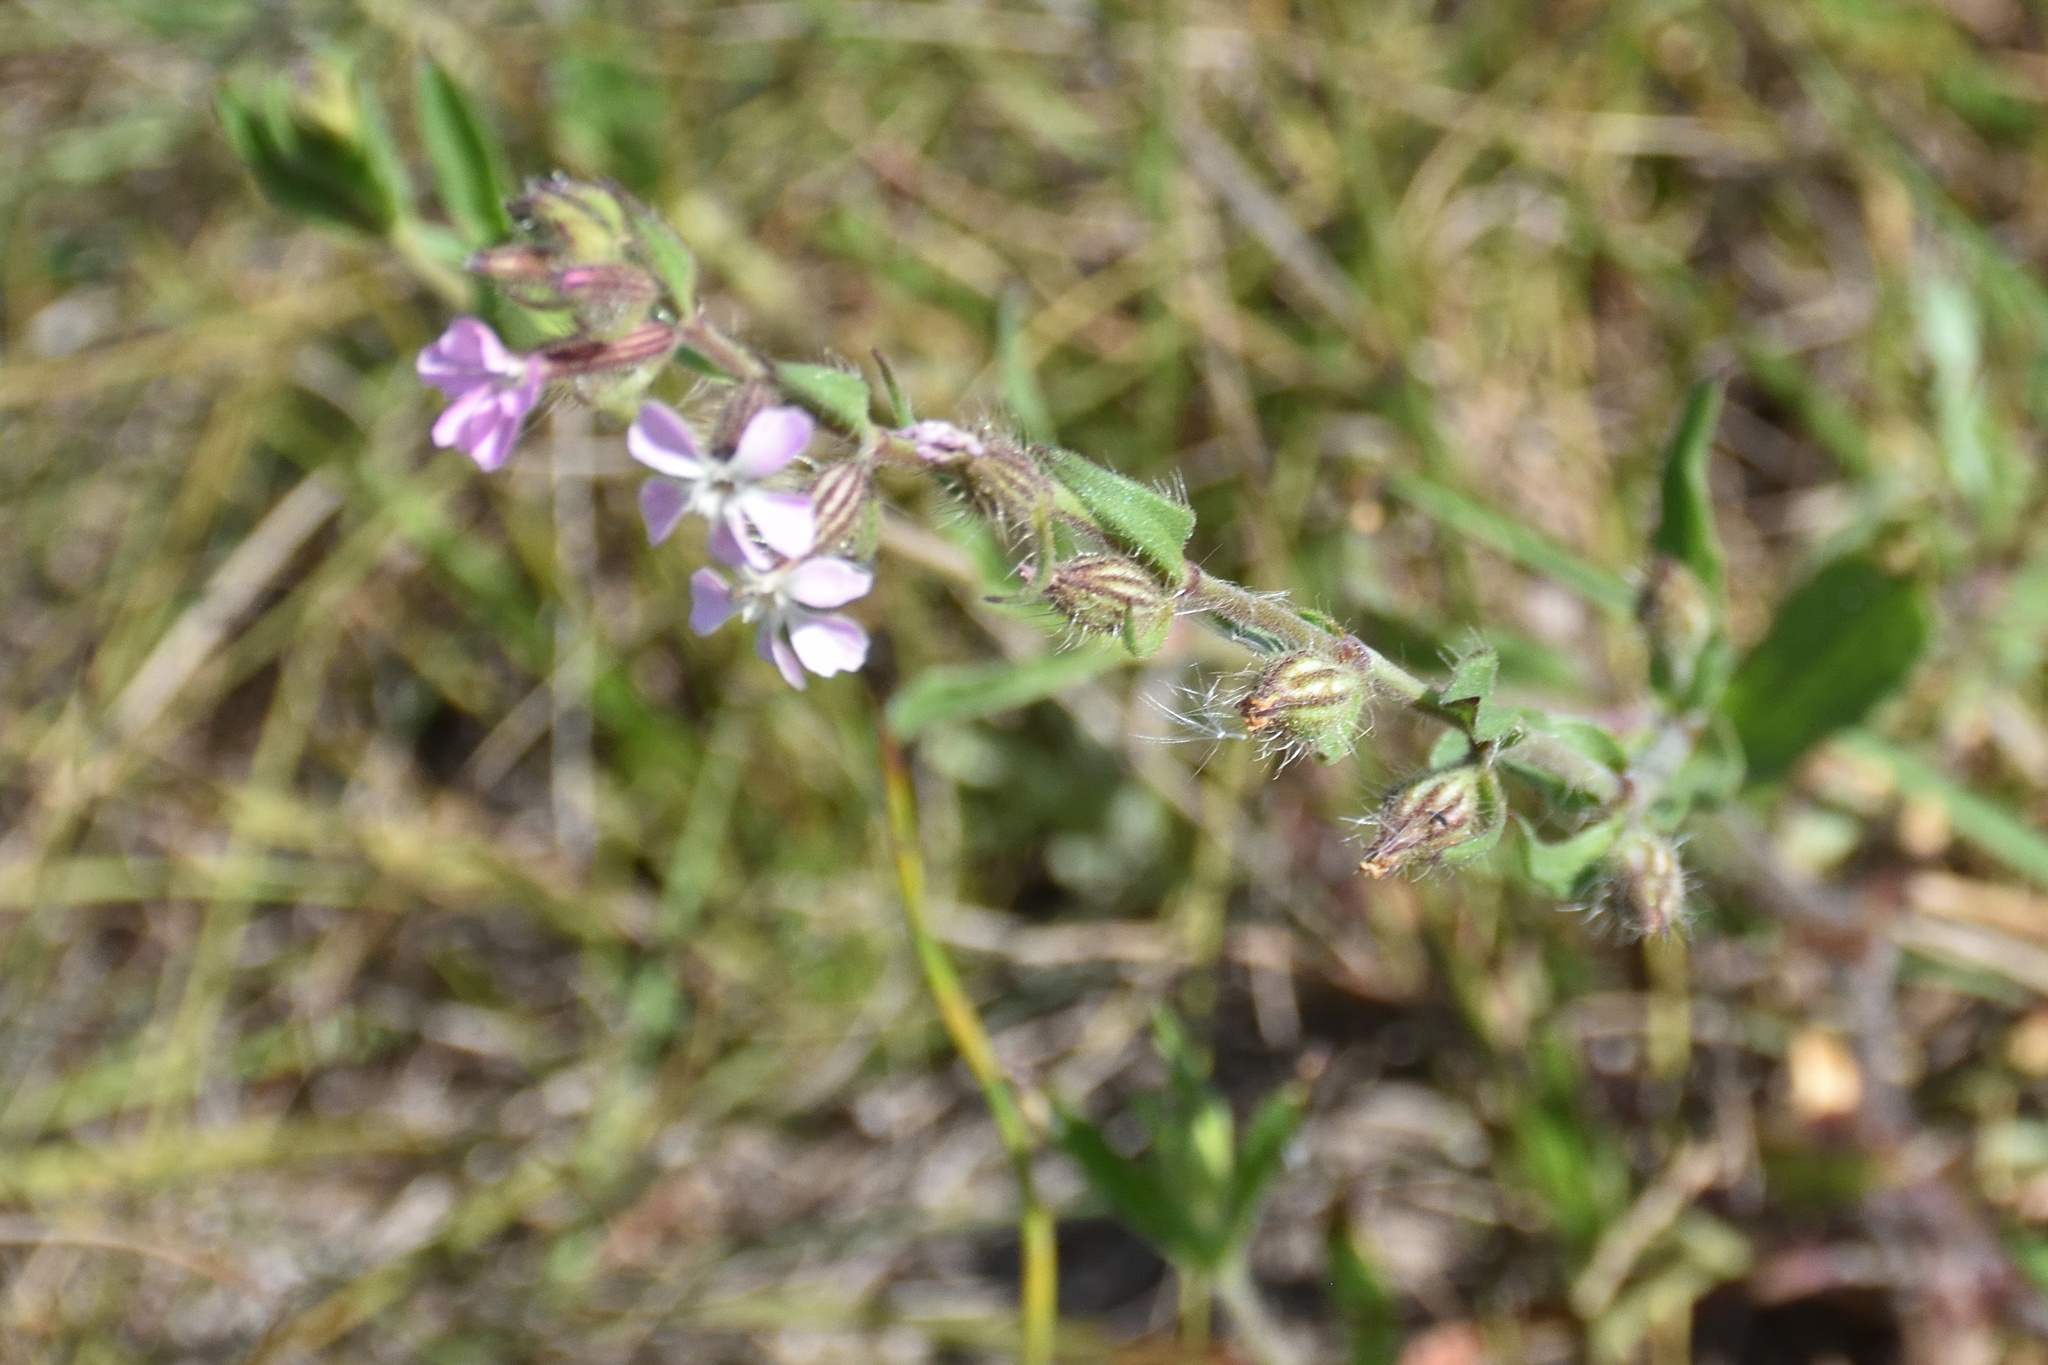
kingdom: Plantae
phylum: Tracheophyta
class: Magnoliopsida
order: Caryophyllales
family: Caryophyllaceae
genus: Silene
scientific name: Silene gallica
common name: Small-flowered catchfly
